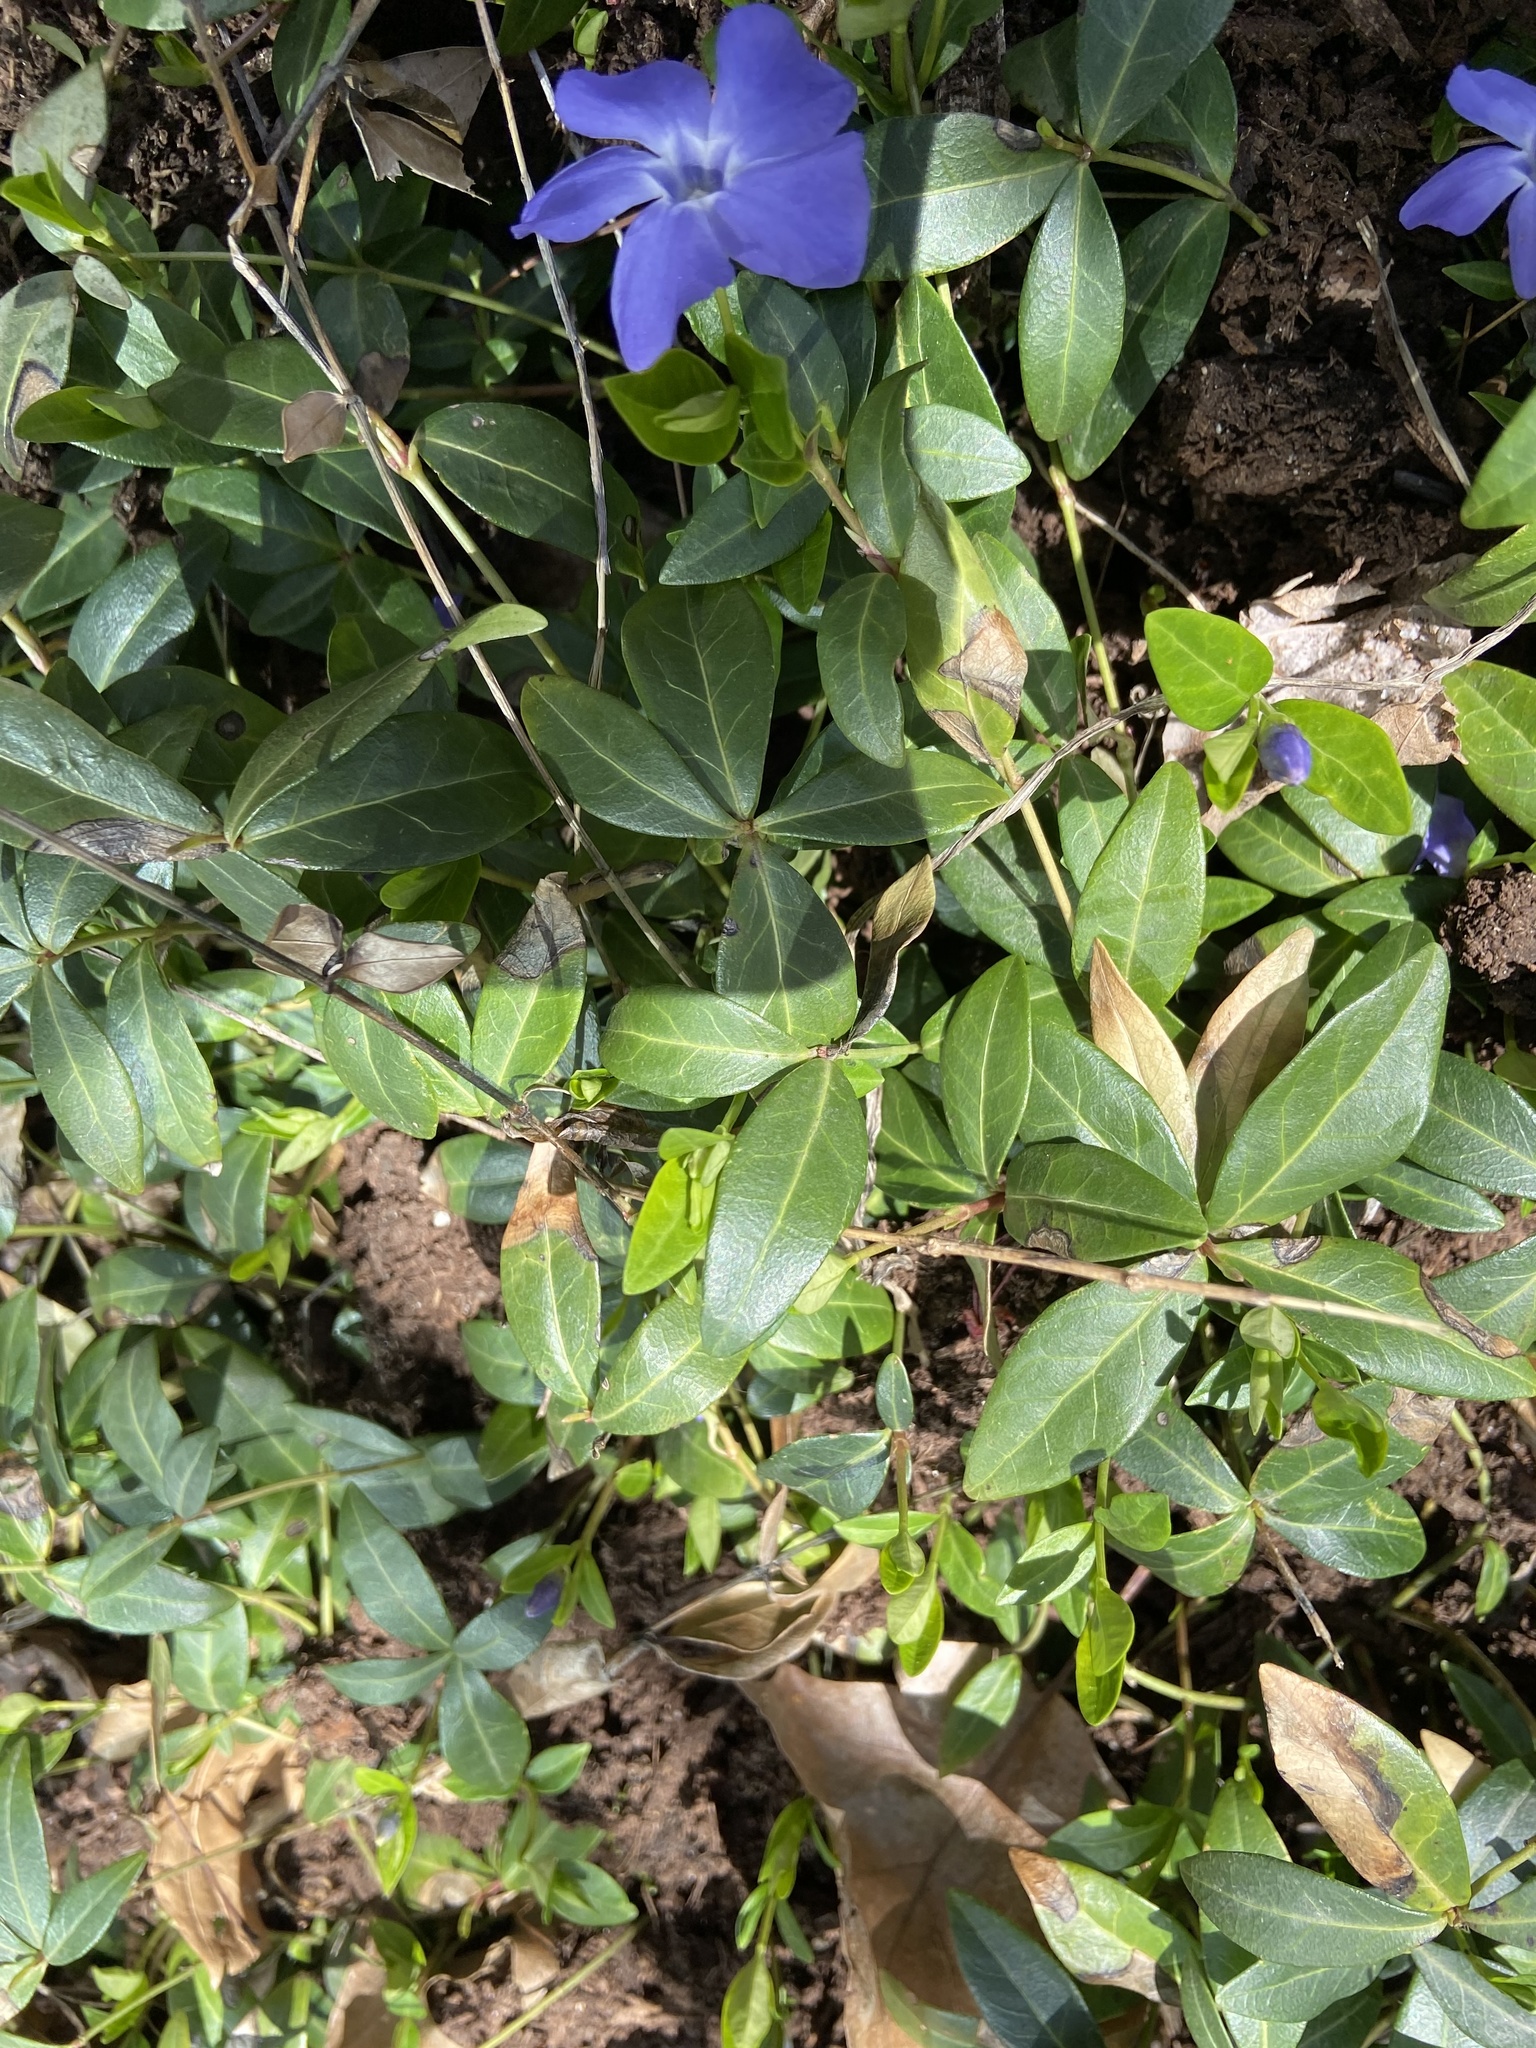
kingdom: Plantae
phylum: Tracheophyta
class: Magnoliopsida
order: Gentianales
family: Apocynaceae
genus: Vinca
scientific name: Vinca minor
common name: Lesser periwinkle
